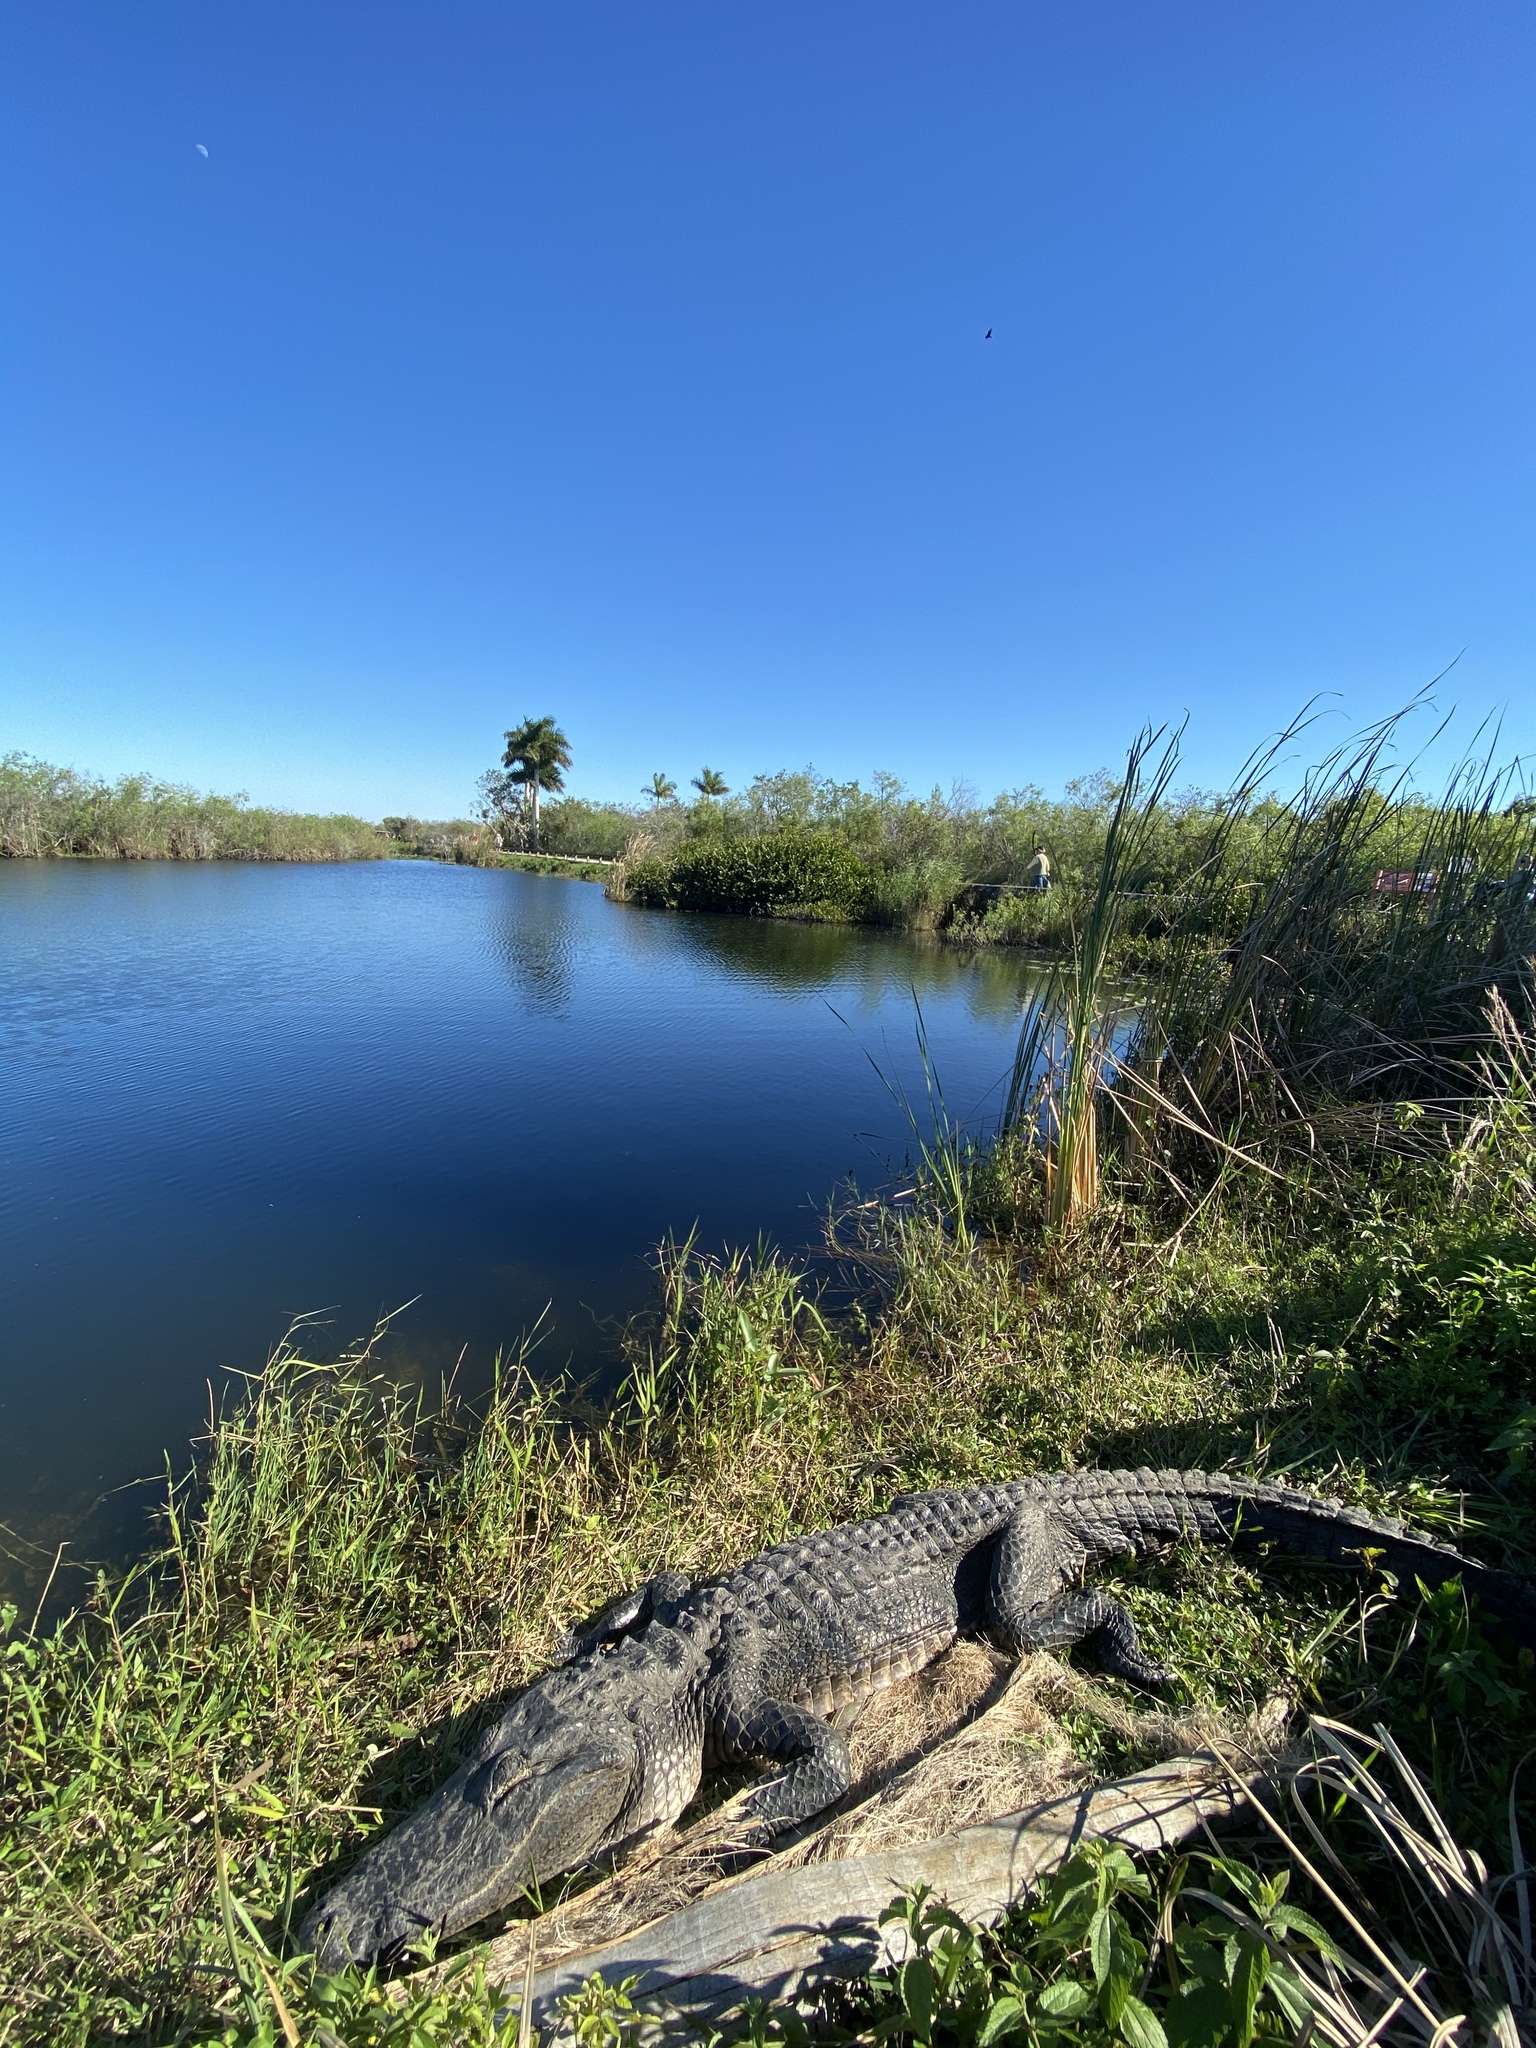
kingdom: Animalia
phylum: Chordata
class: Crocodylia
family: Alligatoridae
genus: Alligator
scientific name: Alligator mississippiensis
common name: American alligator
